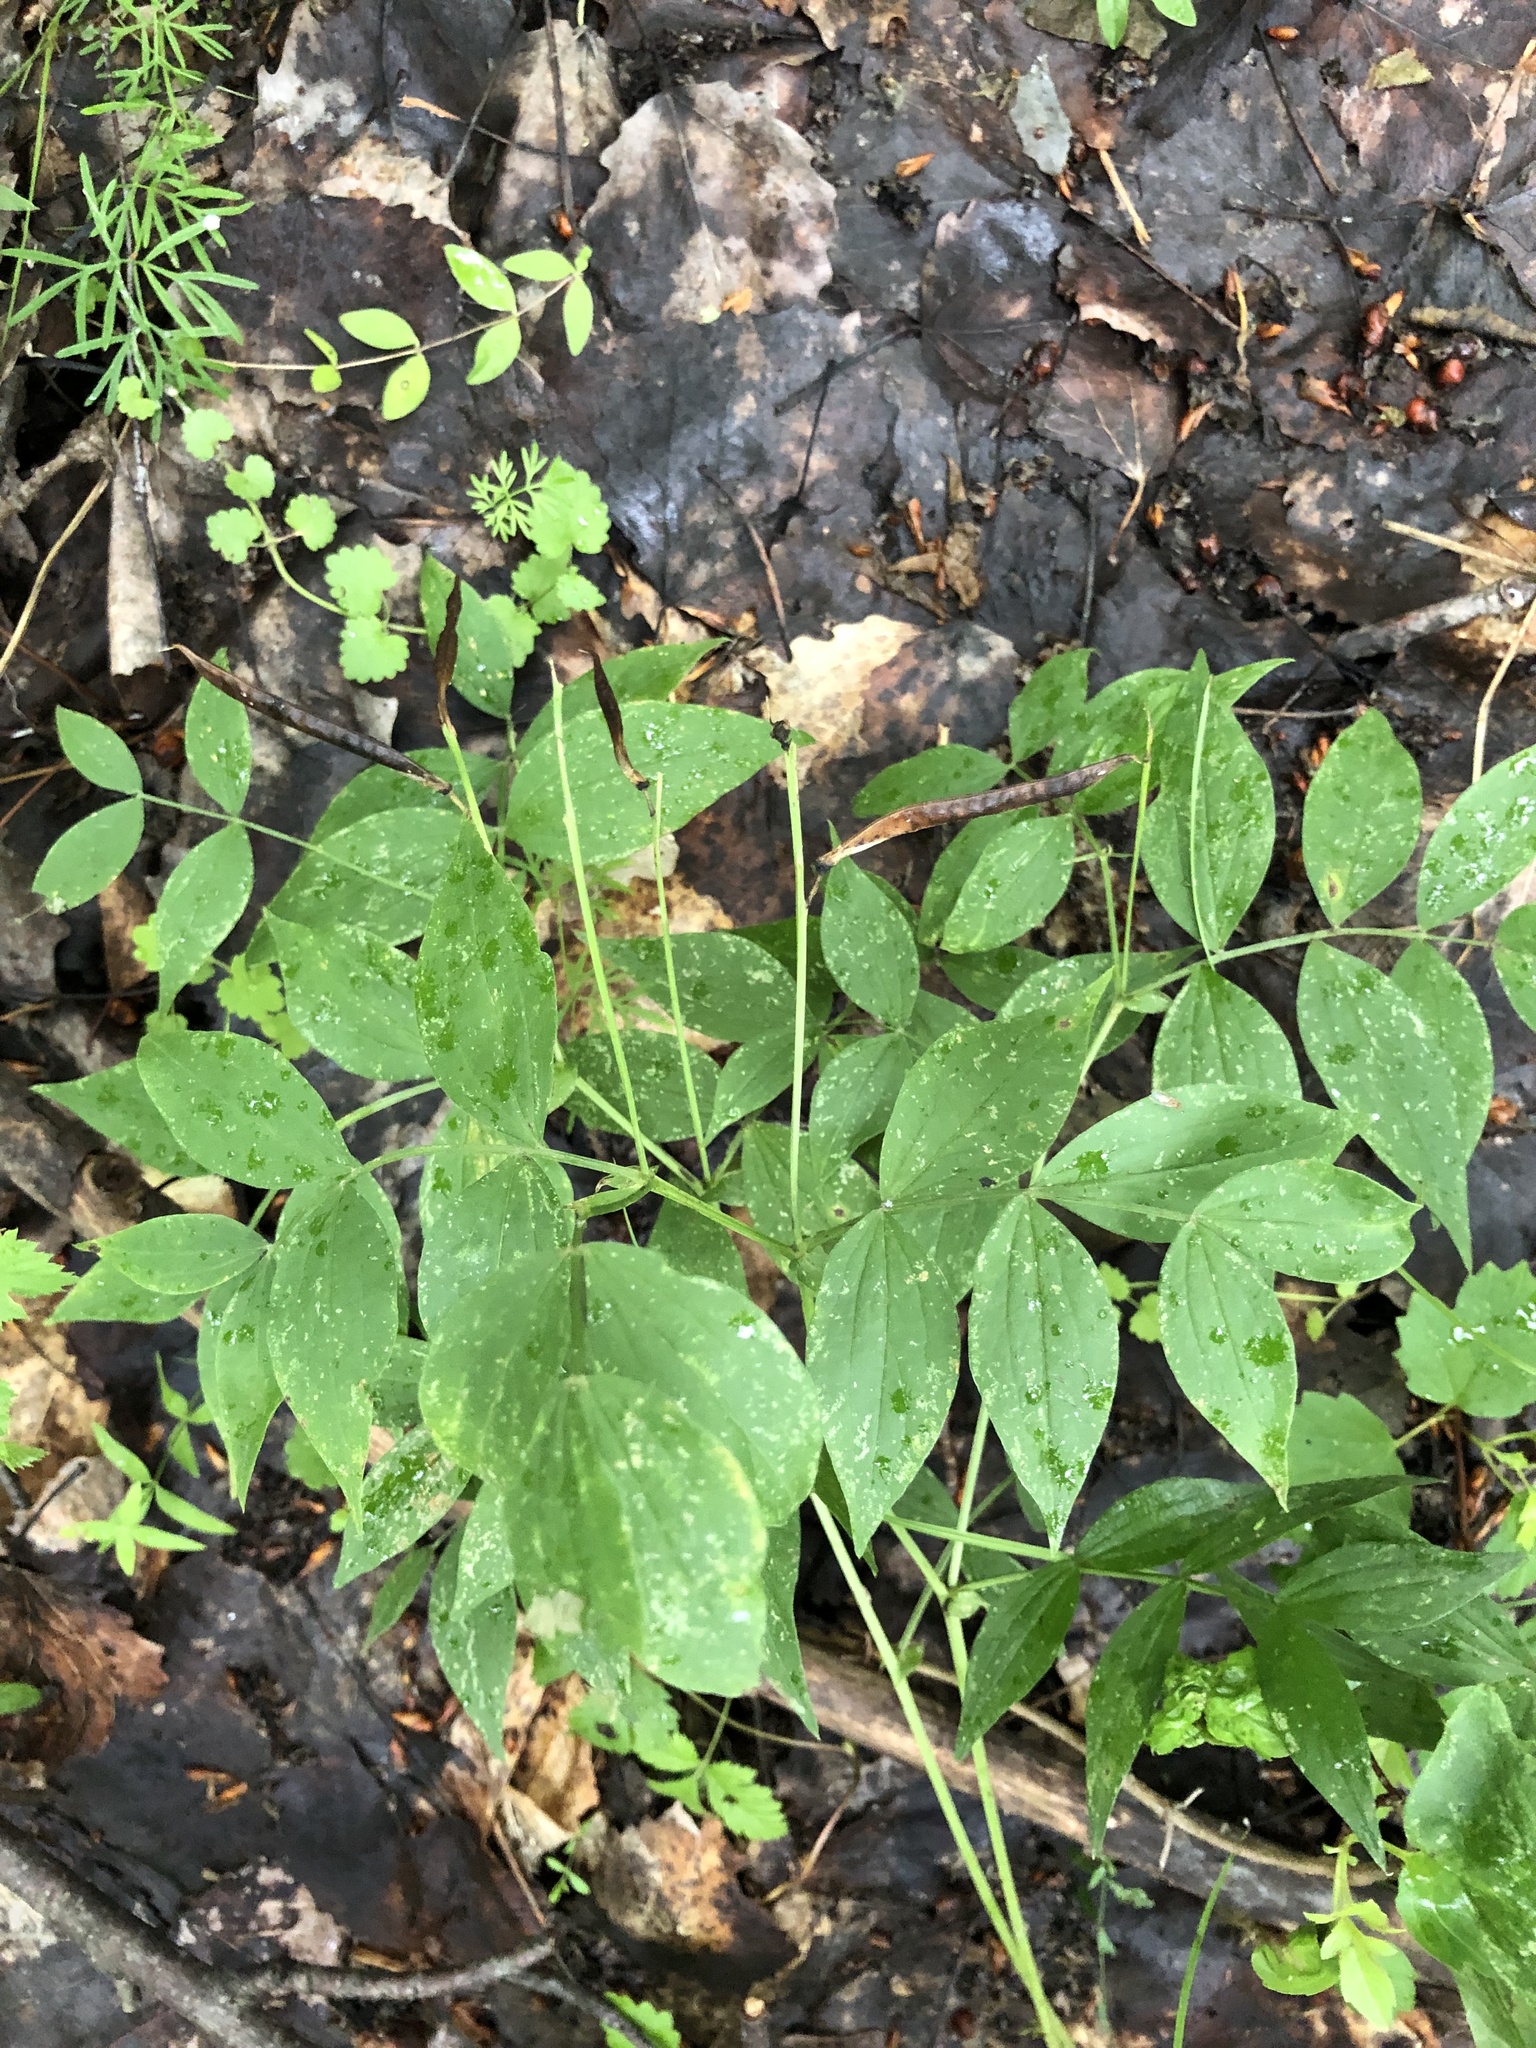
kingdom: Plantae
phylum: Tracheophyta
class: Magnoliopsida
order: Fabales
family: Fabaceae
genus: Lathyrus
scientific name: Lathyrus vernus
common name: Spring pea
